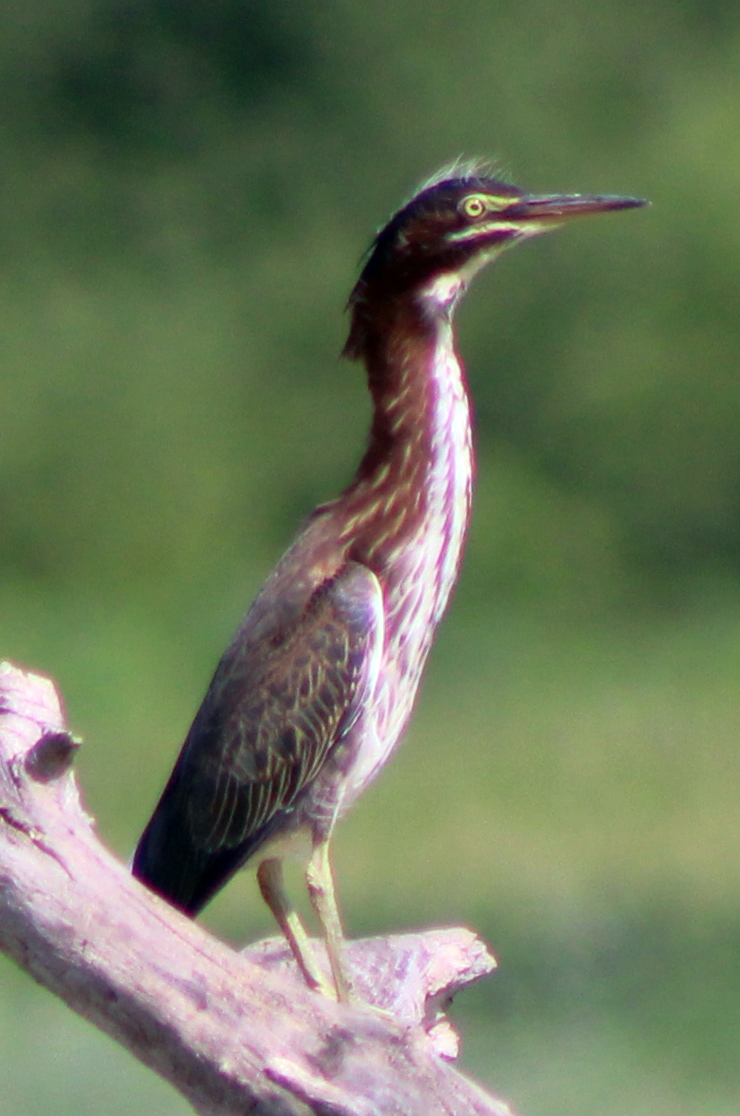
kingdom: Animalia
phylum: Chordata
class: Aves
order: Pelecaniformes
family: Ardeidae
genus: Butorides
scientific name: Butorides virescens
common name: Green heron
